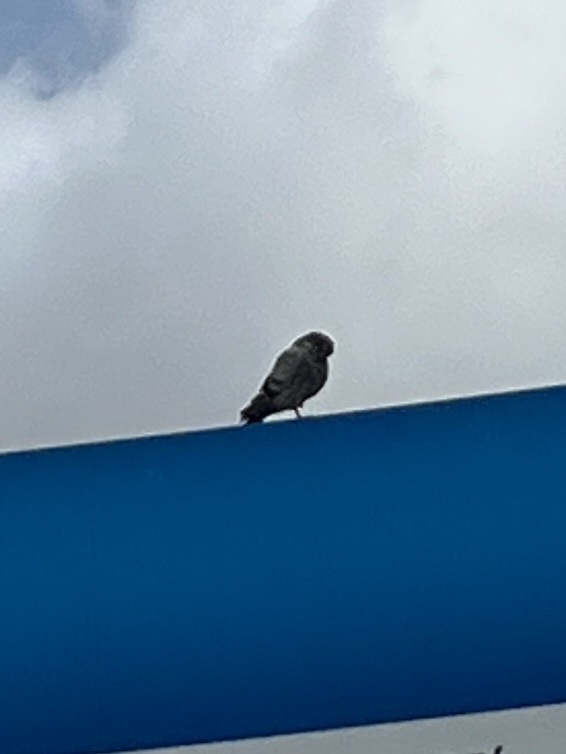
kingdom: Animalia
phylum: Chordata
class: Aves
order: Columbiformes
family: Columbidae
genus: Columba
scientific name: Columba livia
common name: Rock pigeon
